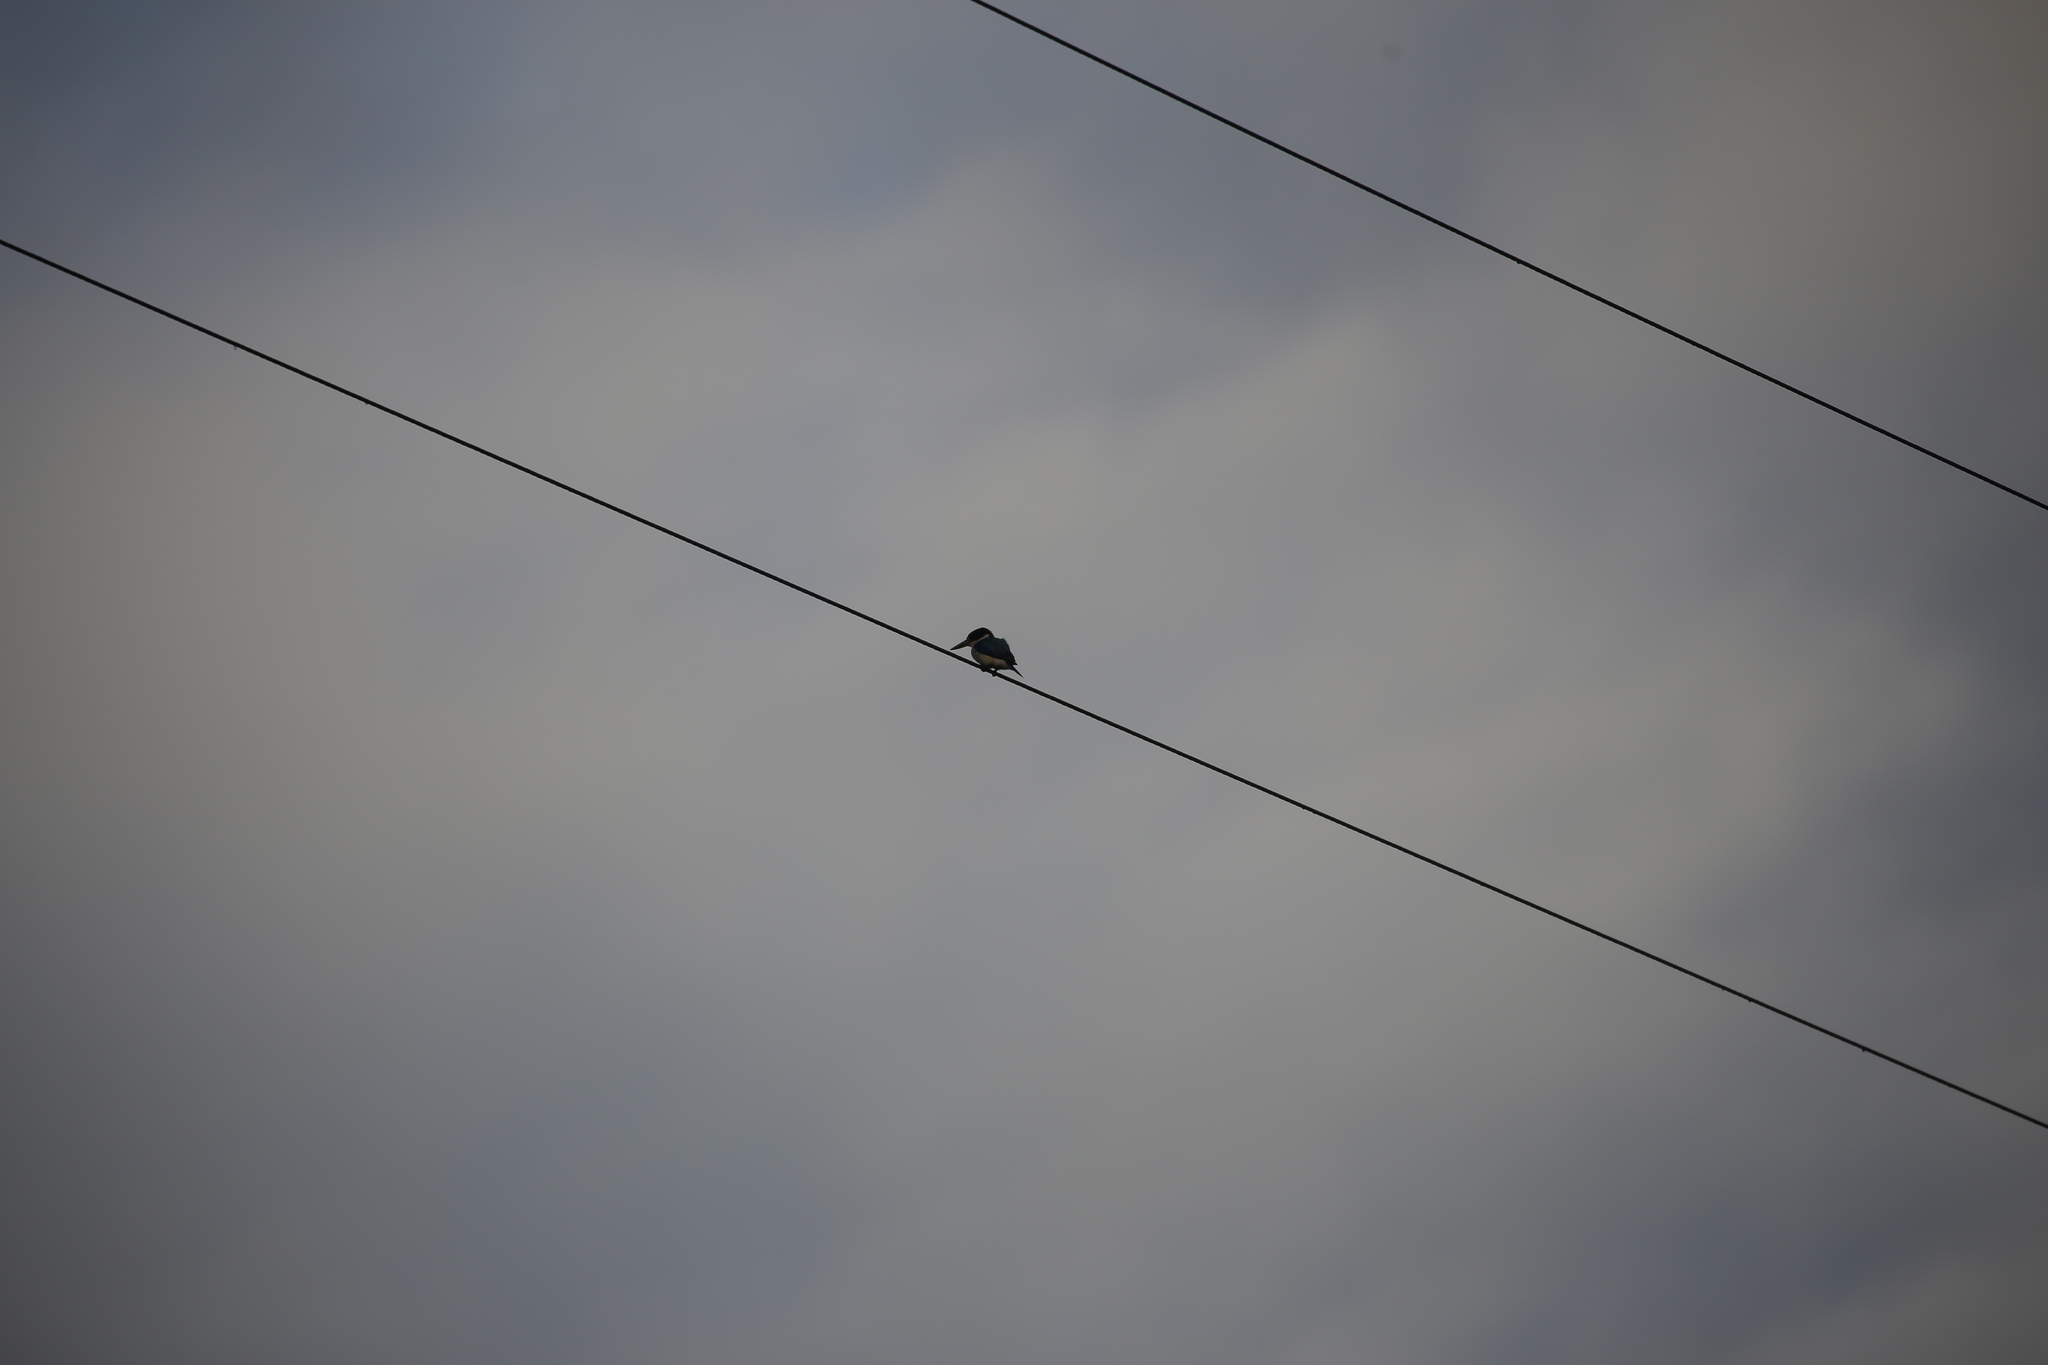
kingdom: Animalia
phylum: Chordata
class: Aves
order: Coraciiformes
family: Alcedinidae
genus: Todiramphus
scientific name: Todiramphus macleayii
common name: Forest kingfisher
